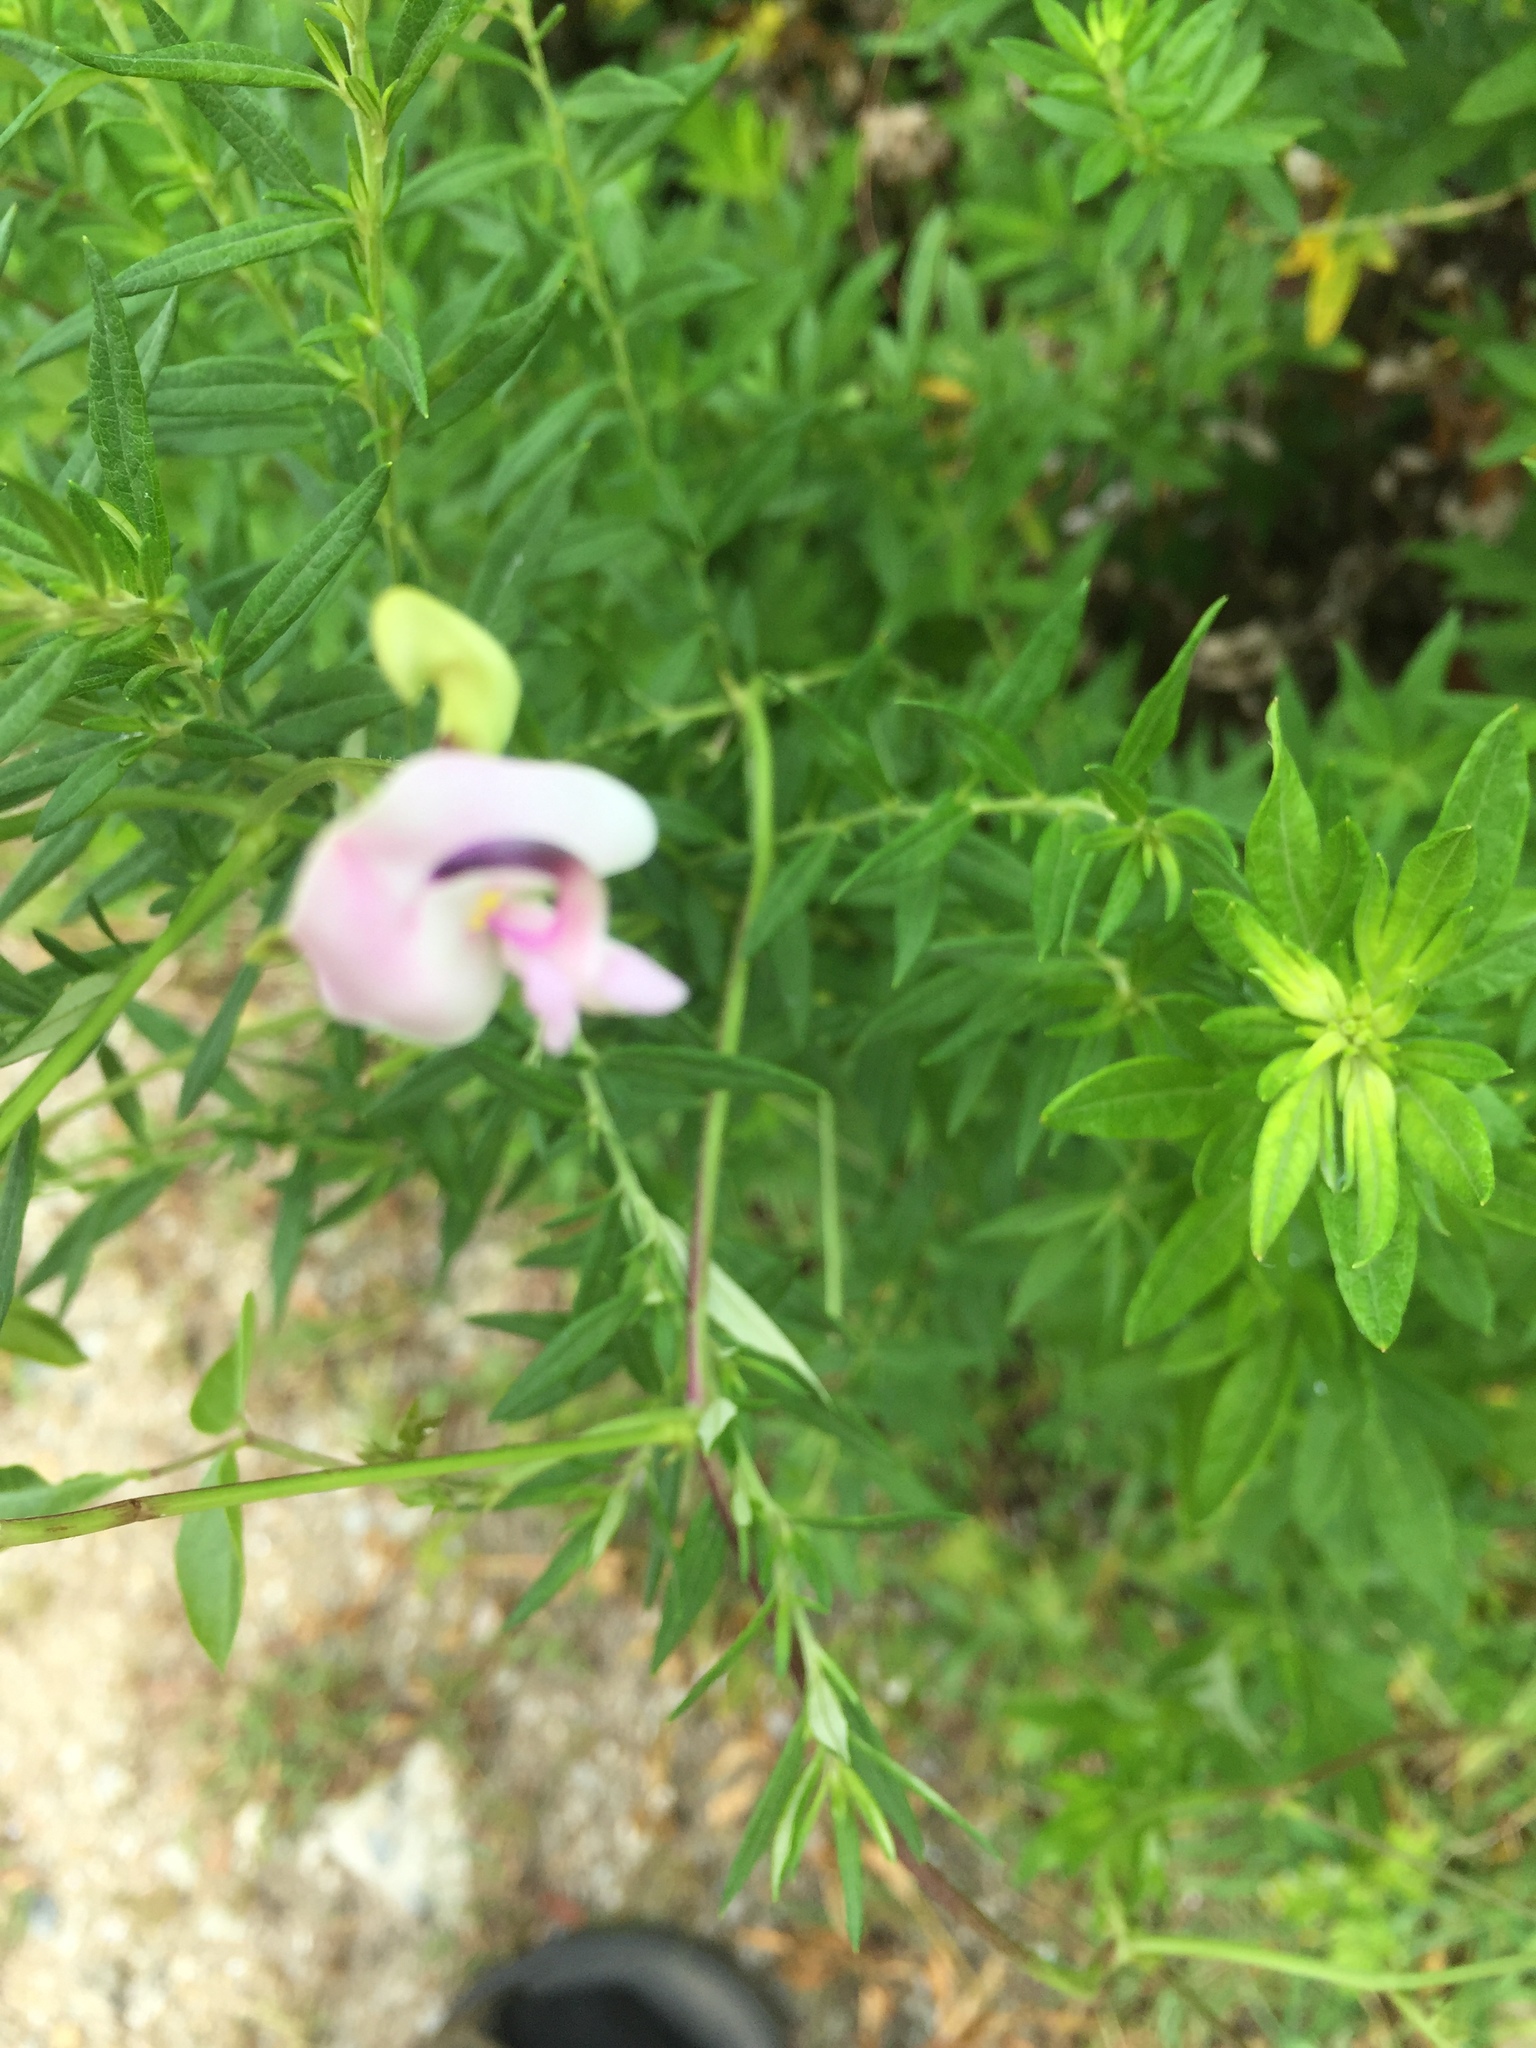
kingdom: Plantae
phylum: Tracheophyta
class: Magnoliopsida
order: Fabales
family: Fabaceae
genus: Strophostyles
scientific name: Strophostyles helvola
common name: Trailing wild bean
